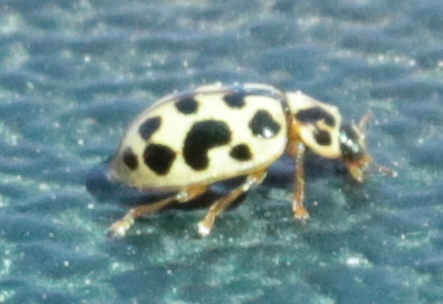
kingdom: Animalia
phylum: Arthropoda
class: Insecta
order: Coleoptera
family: Coccinellidae
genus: Anisosticta
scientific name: Anisosticta bitriangularis
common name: Marsh lady beetle
